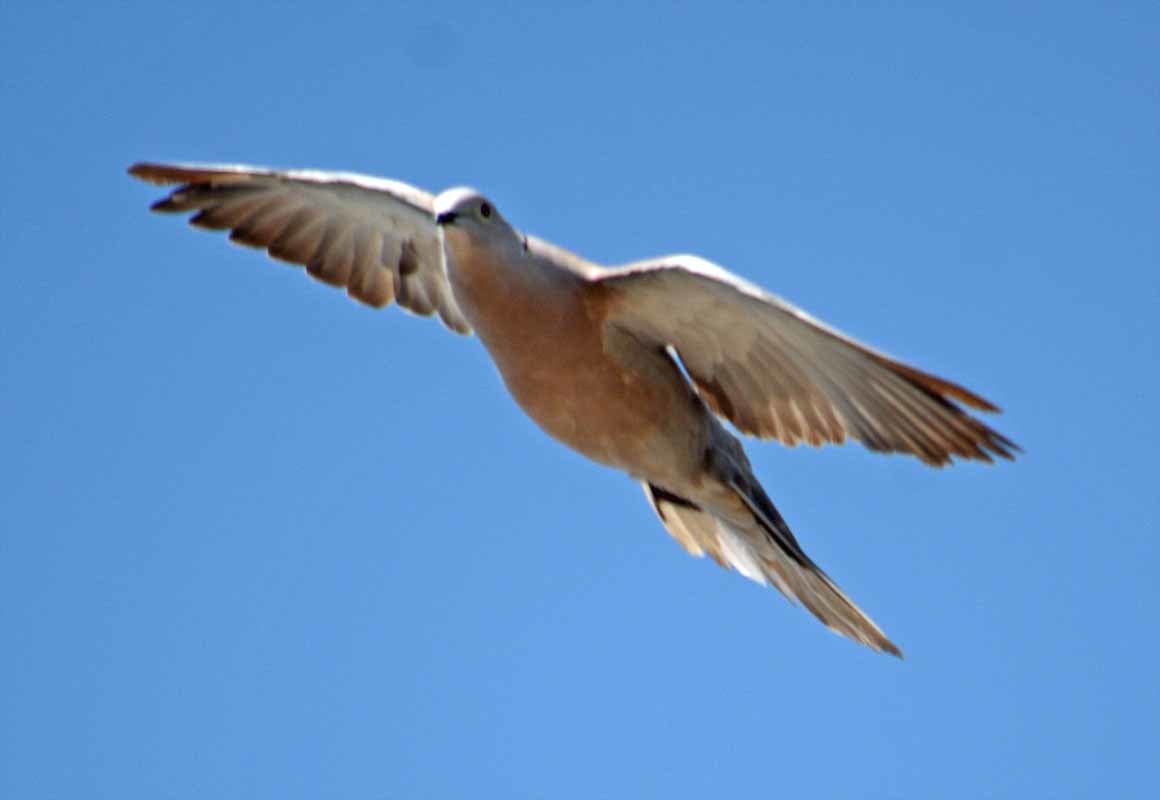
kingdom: Animalia
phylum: Chordata
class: Aves
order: Columbiformes
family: Columbidae
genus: Streptopelia
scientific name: Streptopelia decaocto
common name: Eurasian collared dove
